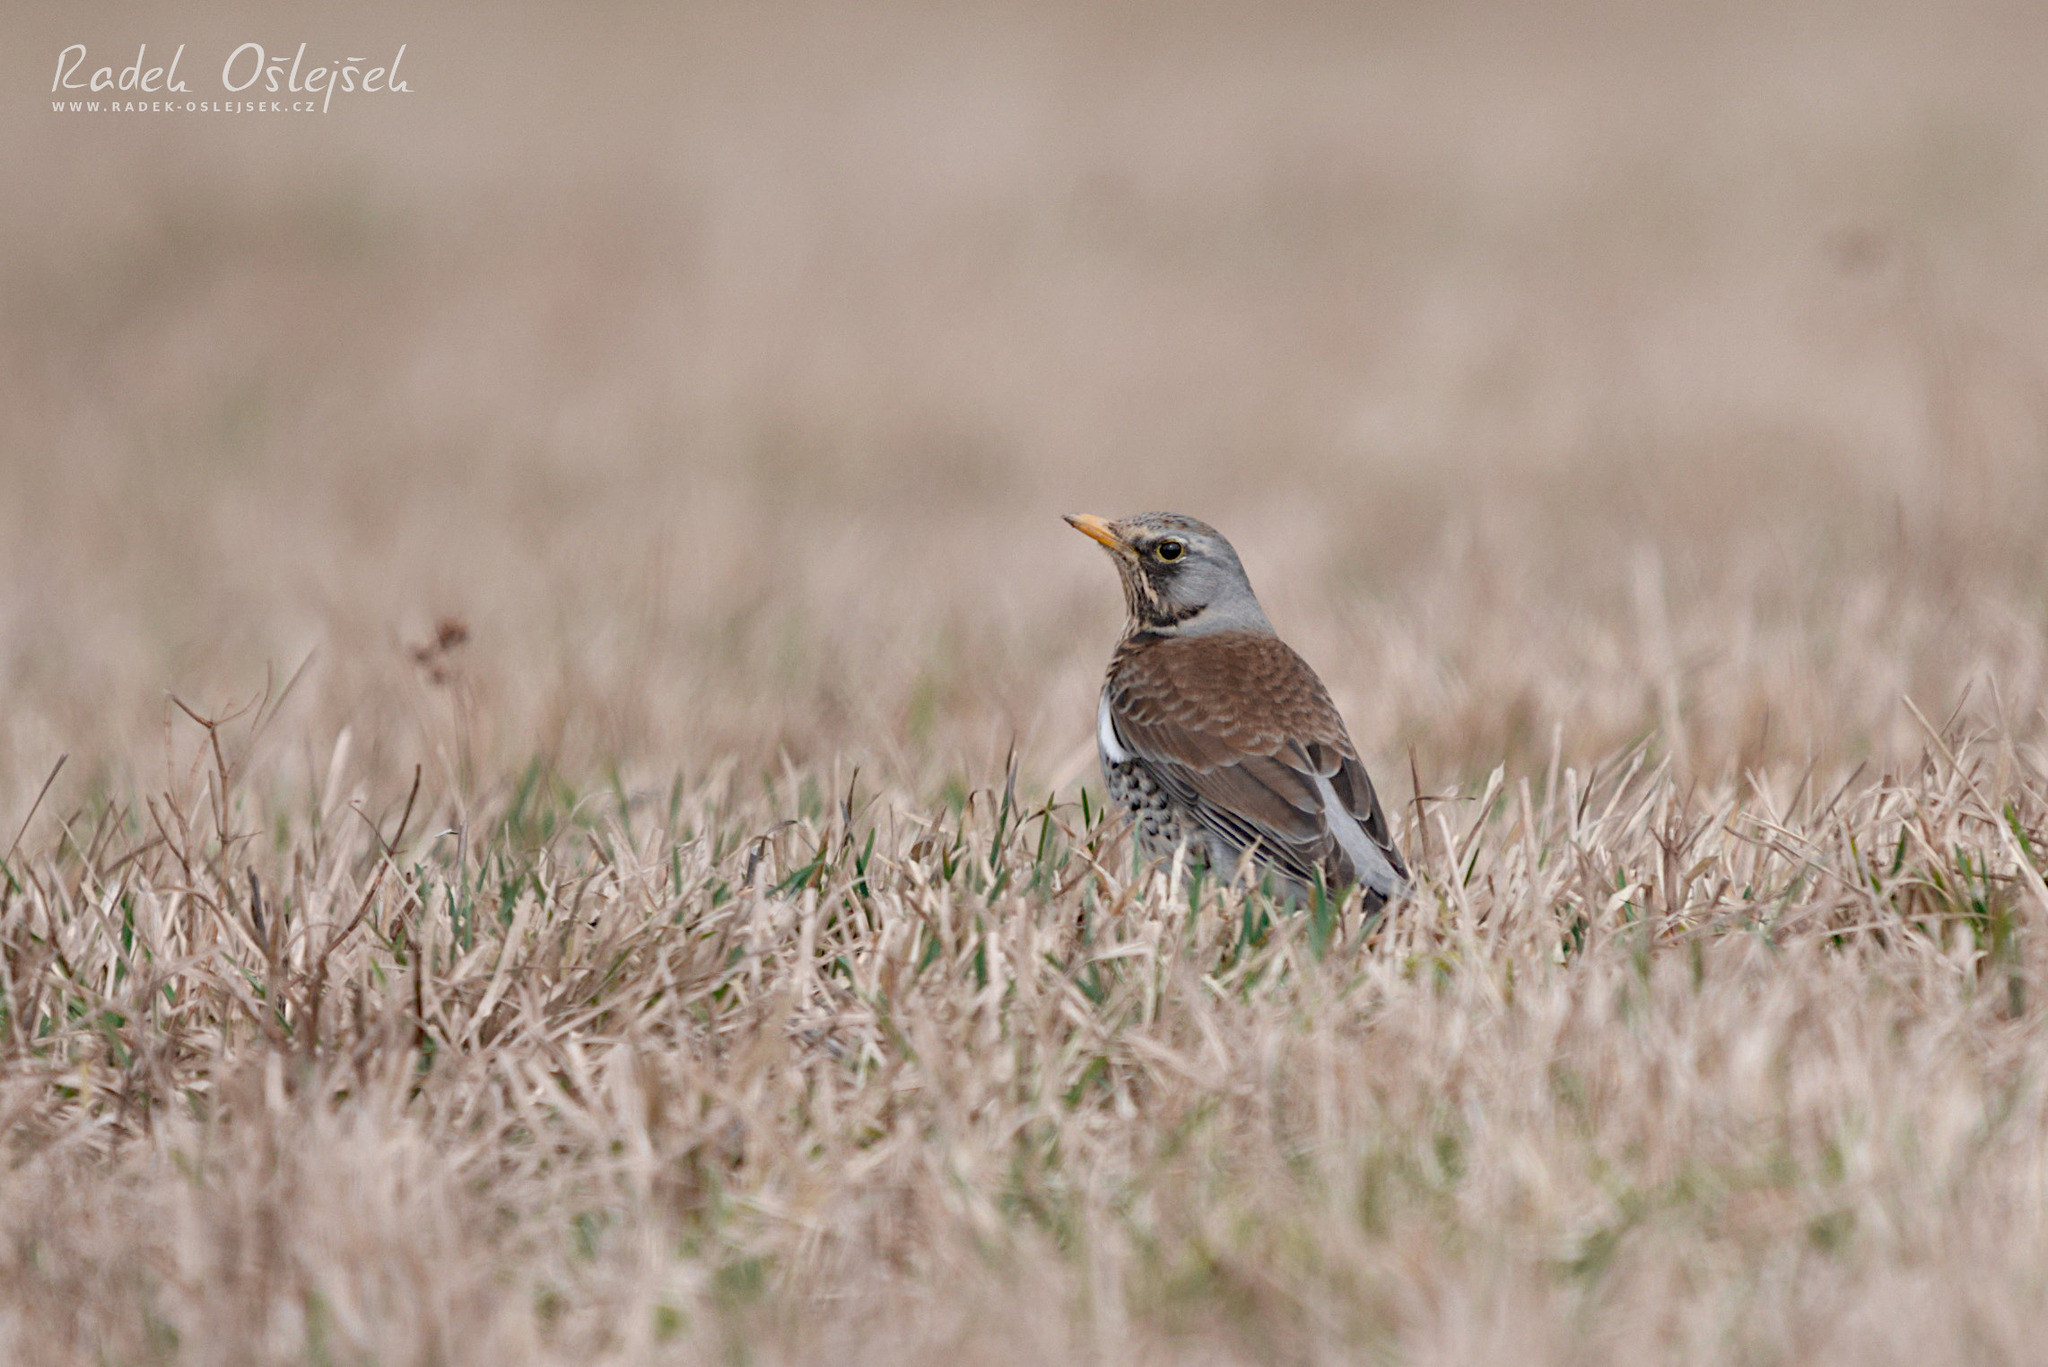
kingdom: Animalia
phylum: Chordata
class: Aves
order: Passeriformes
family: Turdidae
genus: Turdus
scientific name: Turdus pilaris
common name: Fieldfare
